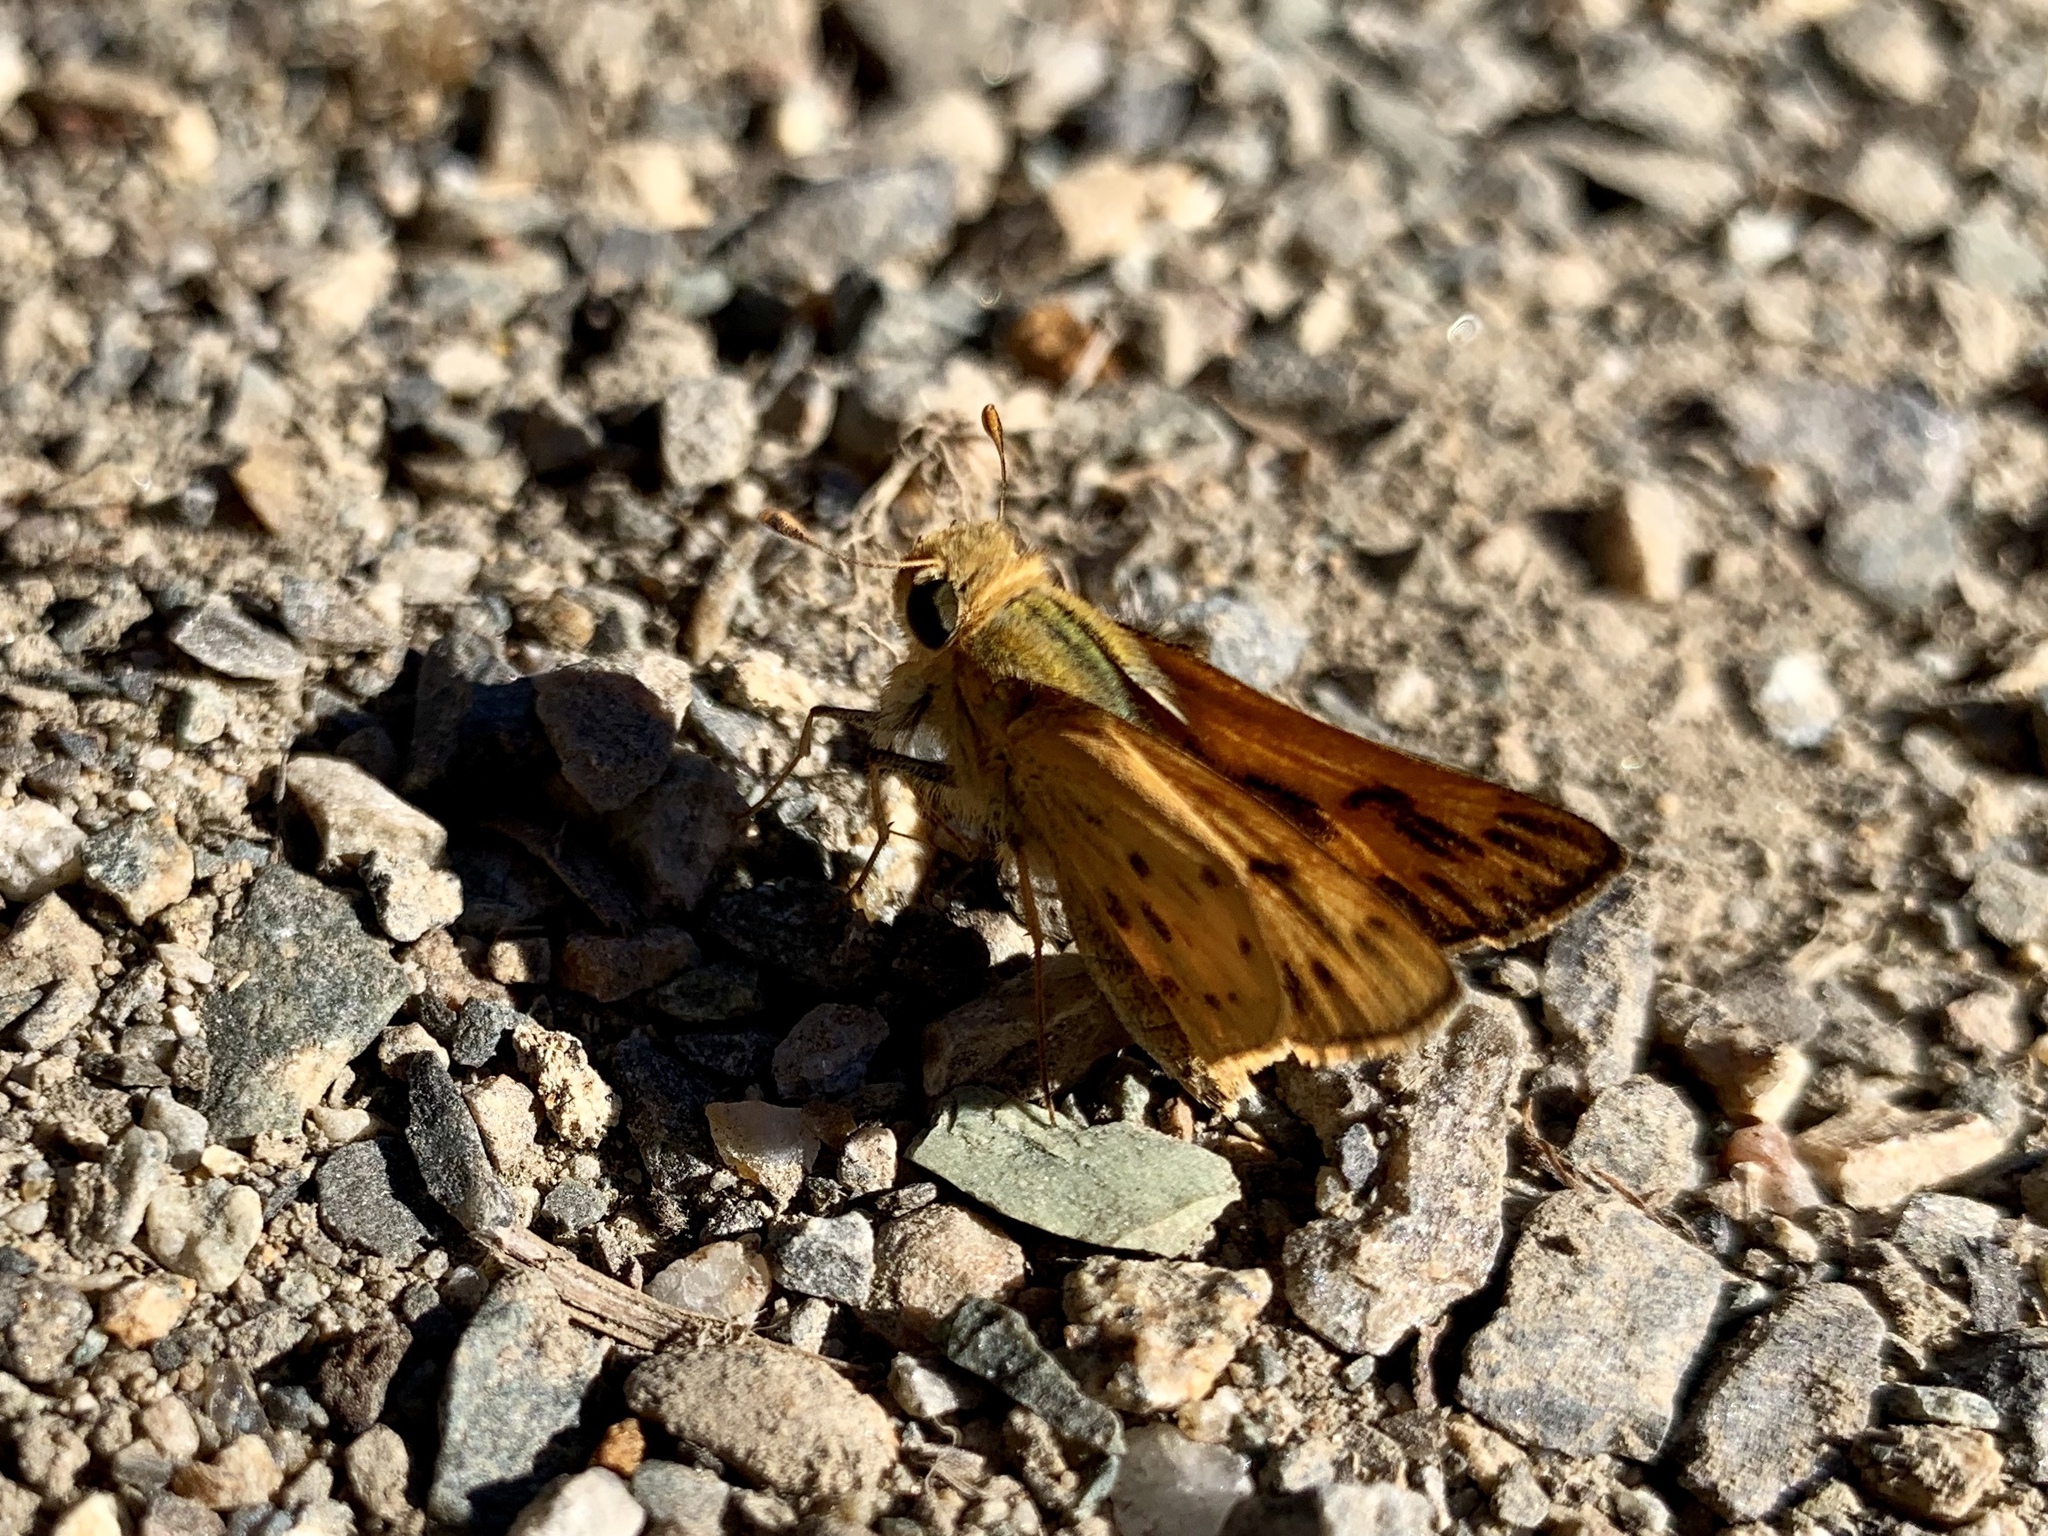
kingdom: Animalia
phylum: Arthropoda
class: Insecta
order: Lepidoptera
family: Hesperiidae
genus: Hylephila
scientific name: Hylephila phyleus
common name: Fiery skipper
